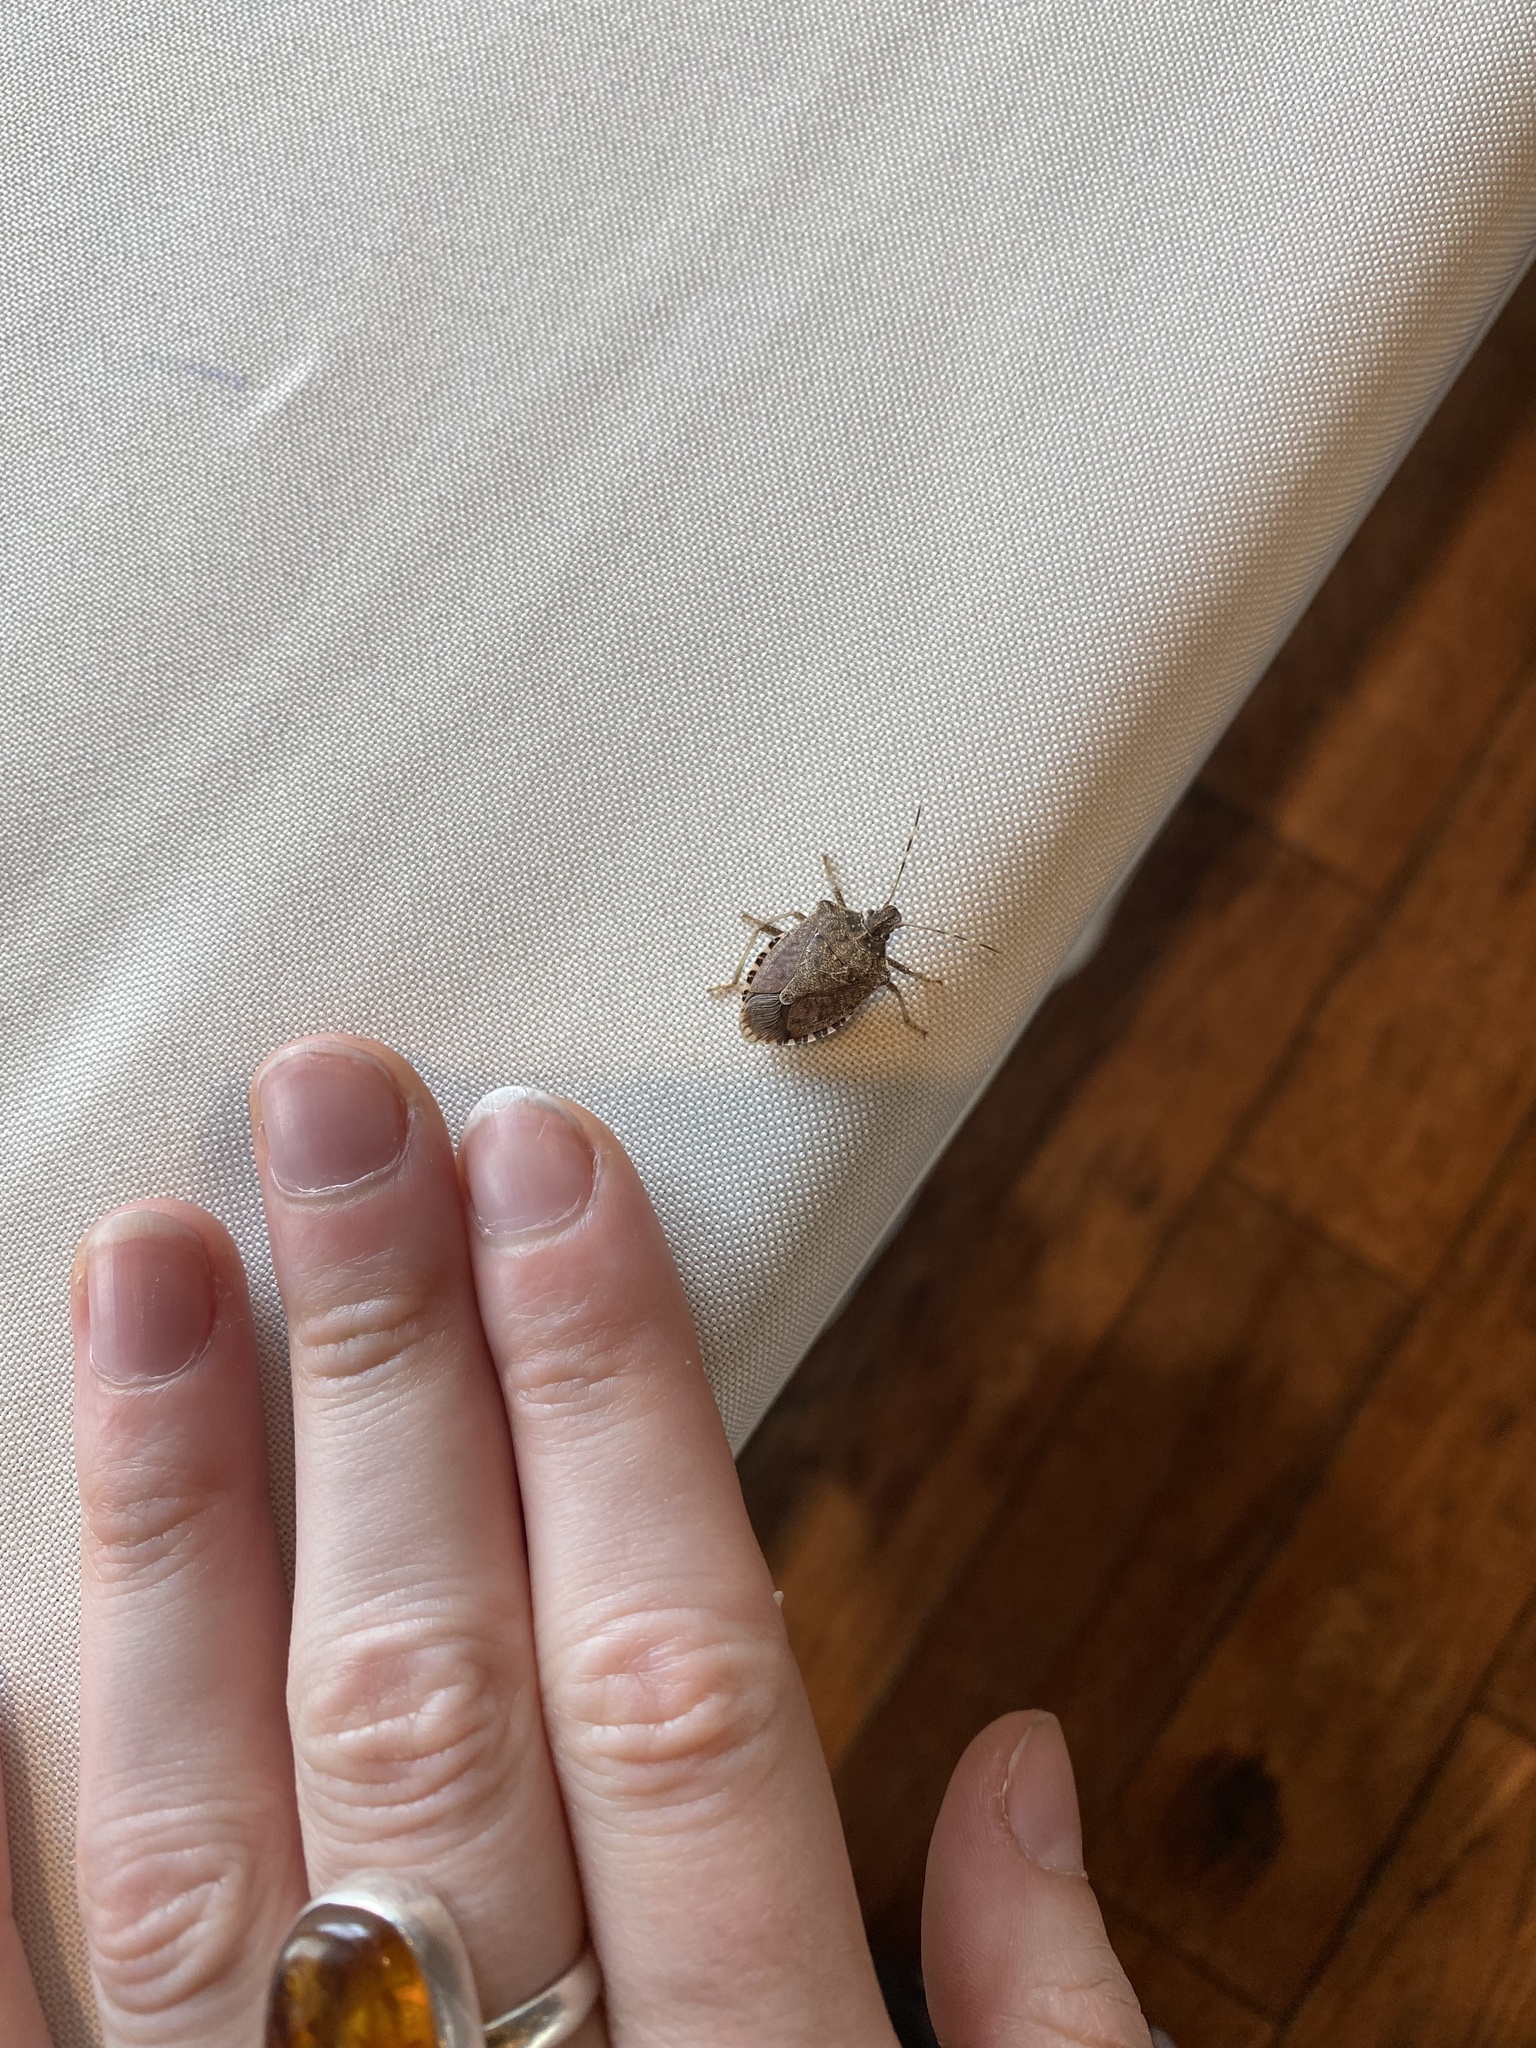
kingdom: Animalia
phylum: Arthropoda
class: Insecta
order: Hemiptera
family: Pentatomidae
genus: Halyomorpha
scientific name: Halyomorpha halys
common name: Brown marmorated stink bug
